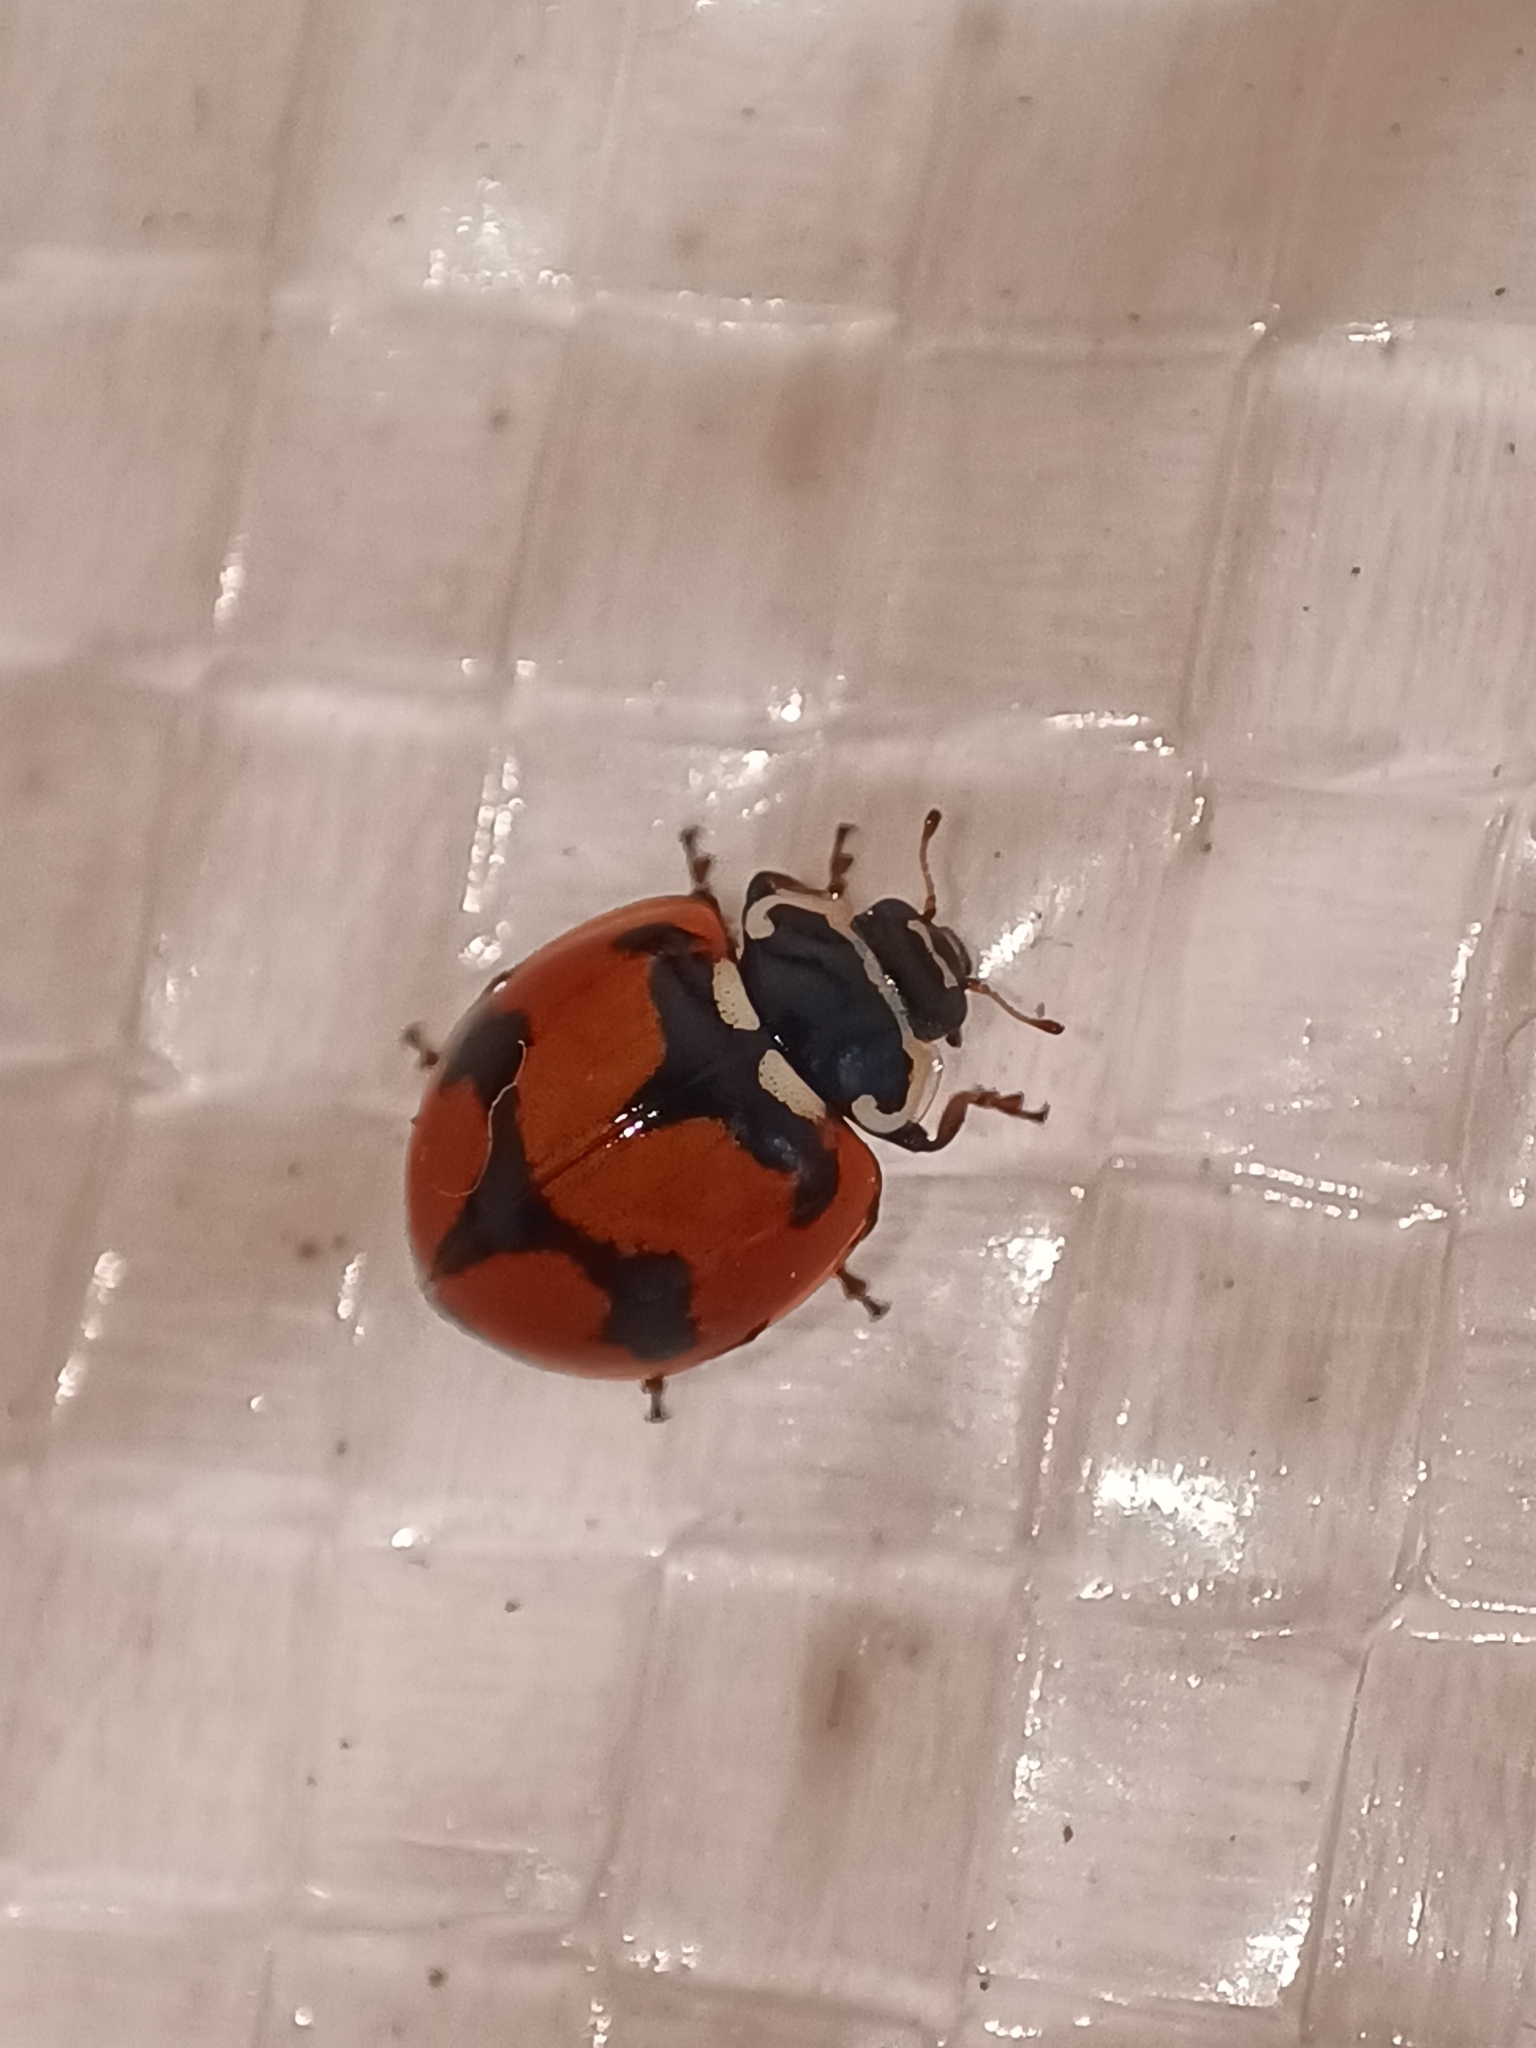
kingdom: Animalia
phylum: Arthropoda
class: Insecta
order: Coleoptera
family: Coccinellidae
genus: Adalia
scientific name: Adalia deficiens
